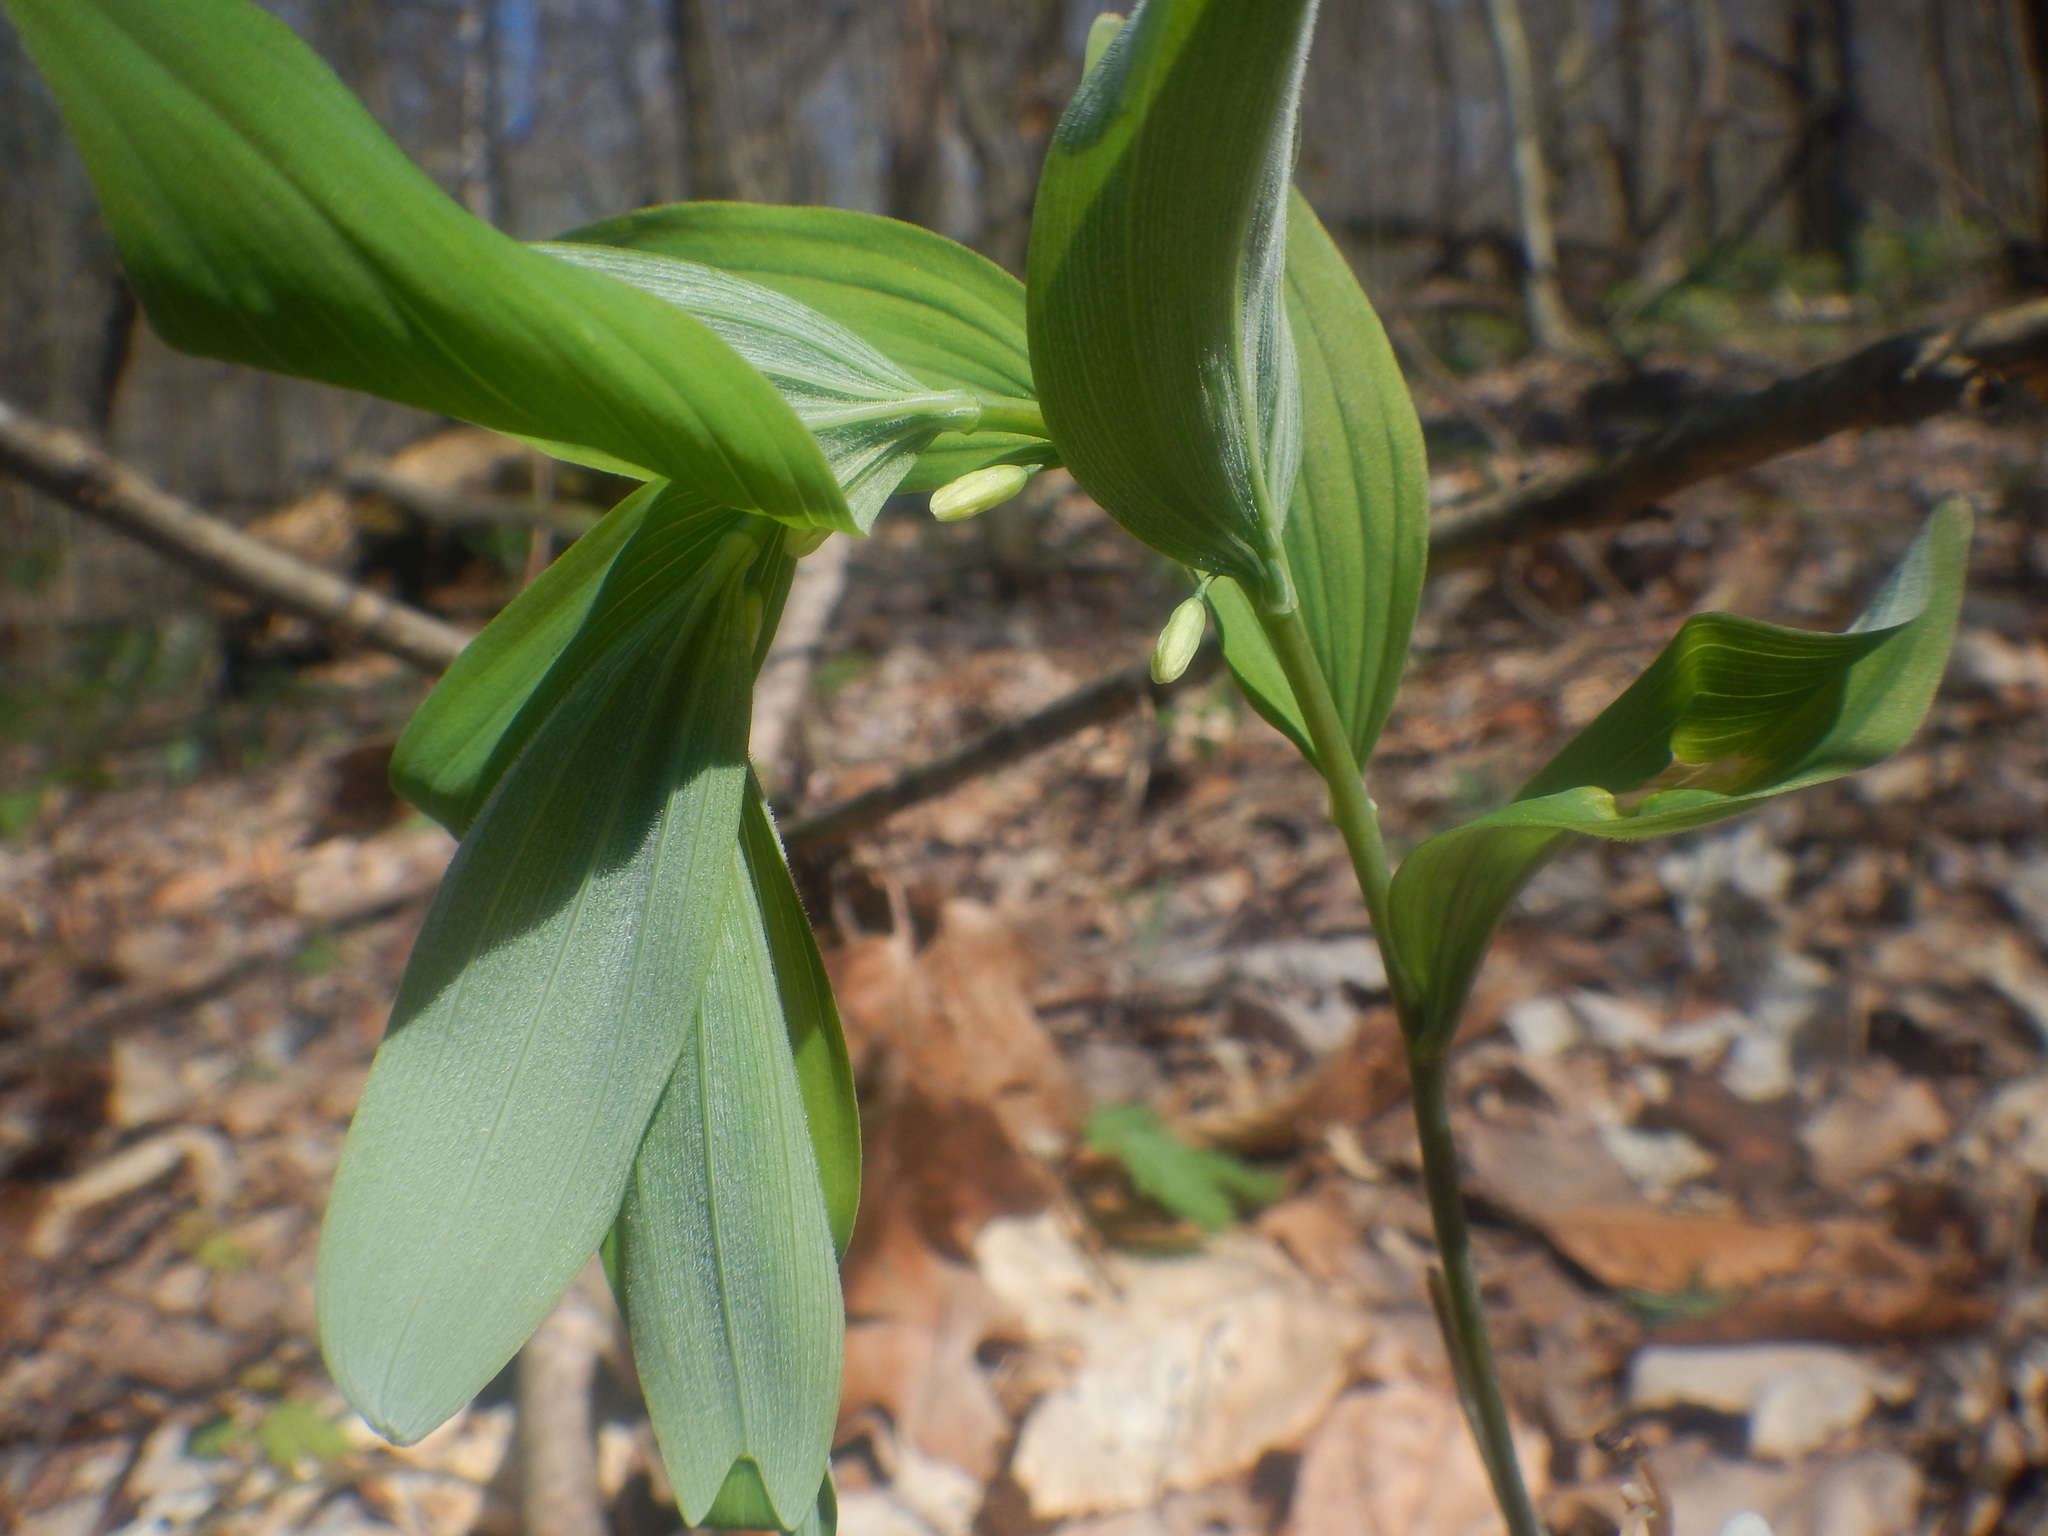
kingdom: Plantae
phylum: Tracheophyta
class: Liliopsida
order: Asparagales
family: Asparagaceae
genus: Polygonatum
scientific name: Polygonatum pubescens
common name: Downy solomon's seal
